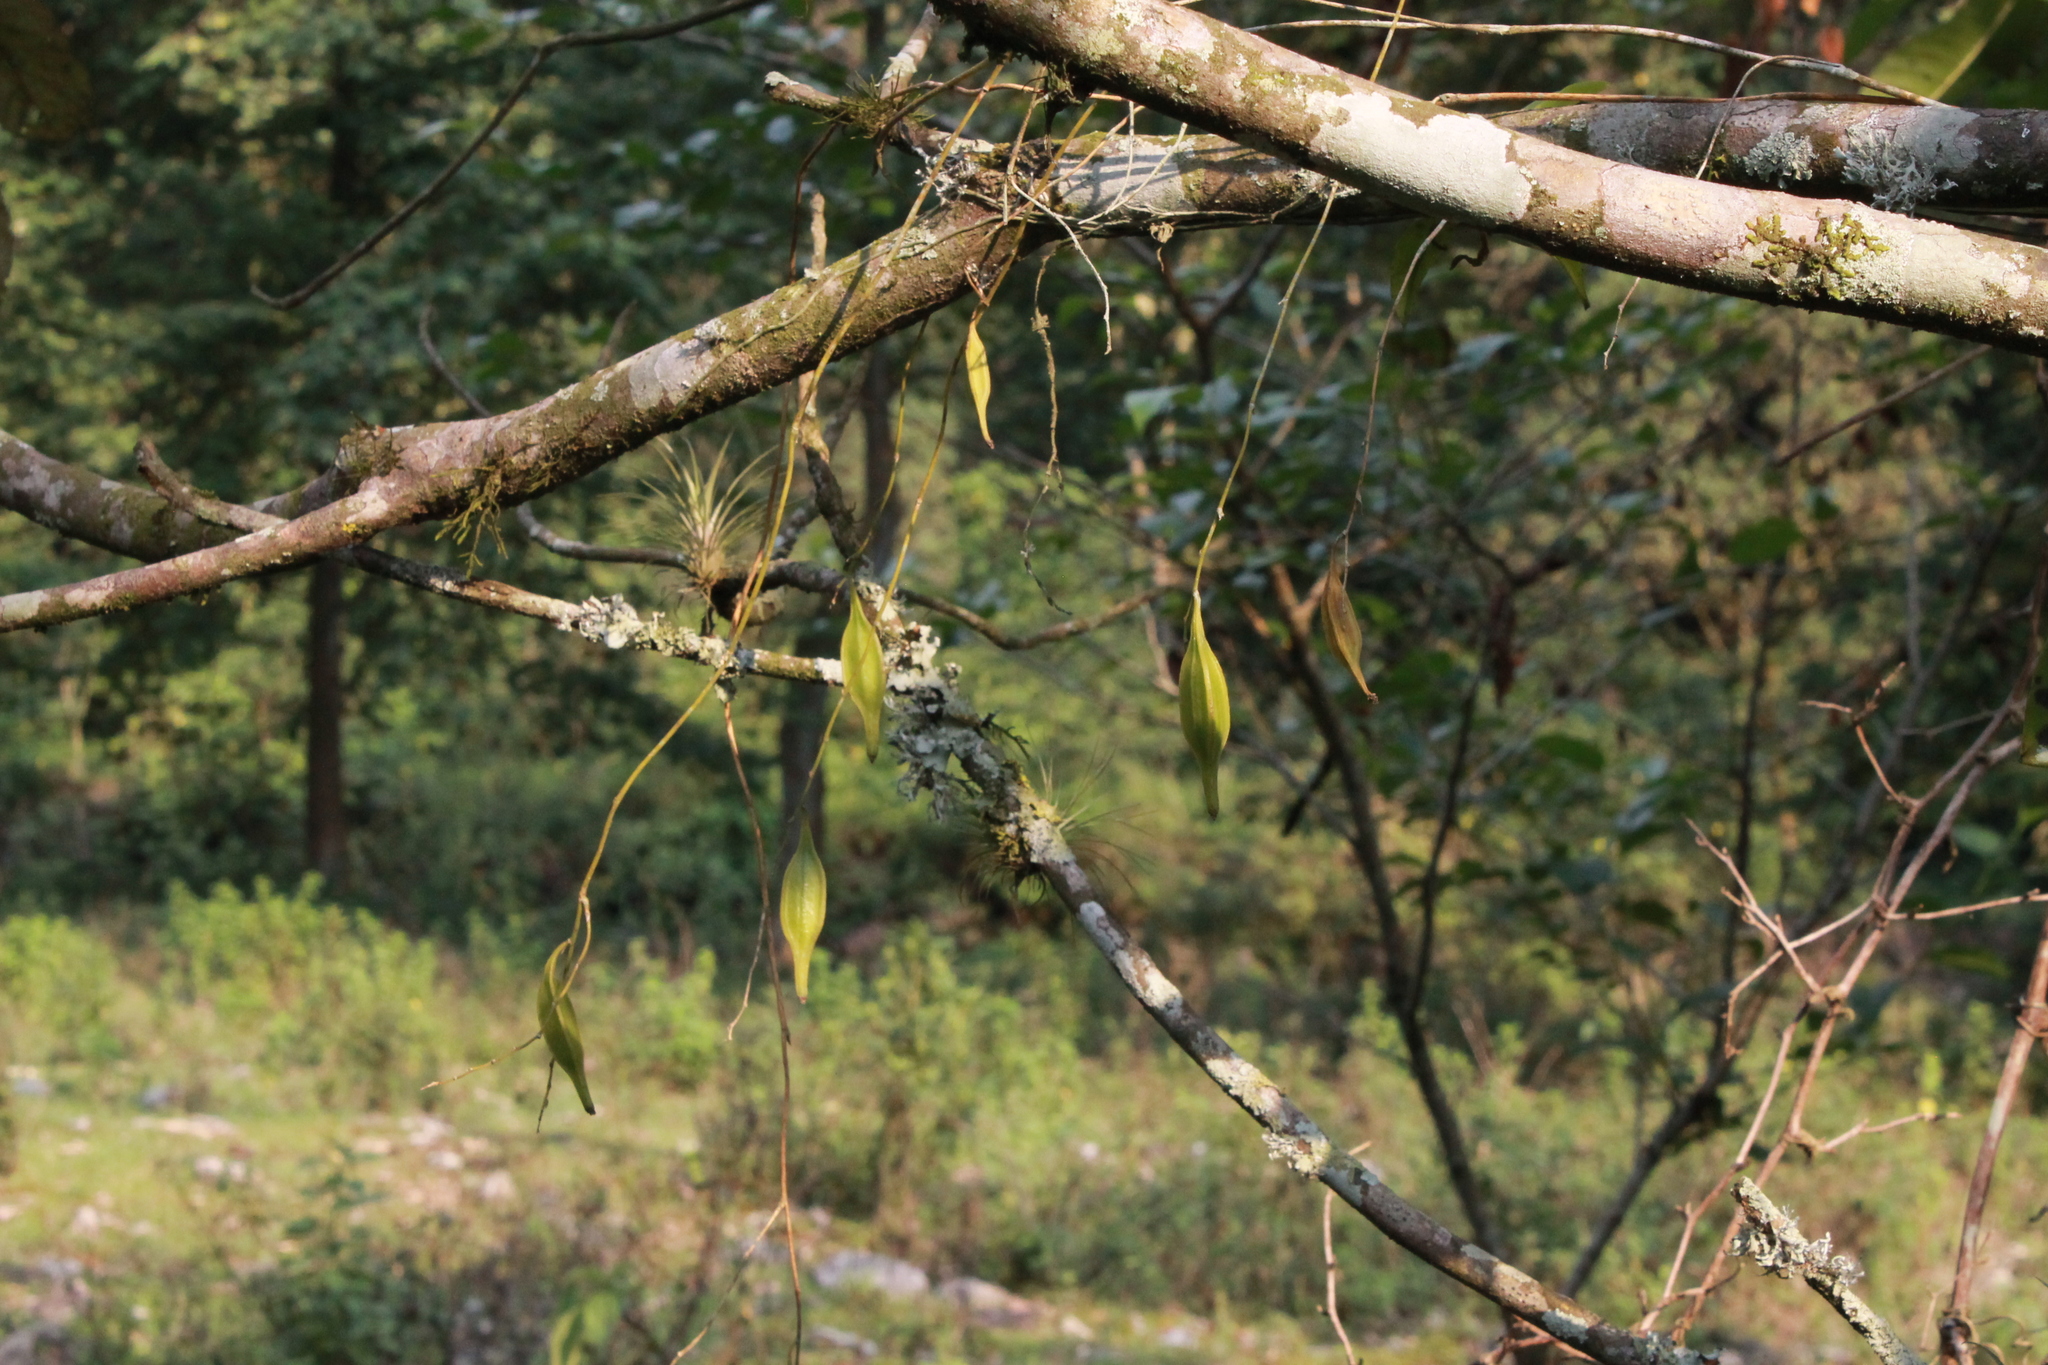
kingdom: Plantae
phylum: Tracheophyta
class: Liliopsida
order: Asparagales
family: Orchidaceae
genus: Leochilus
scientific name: Leochilus carinatus
